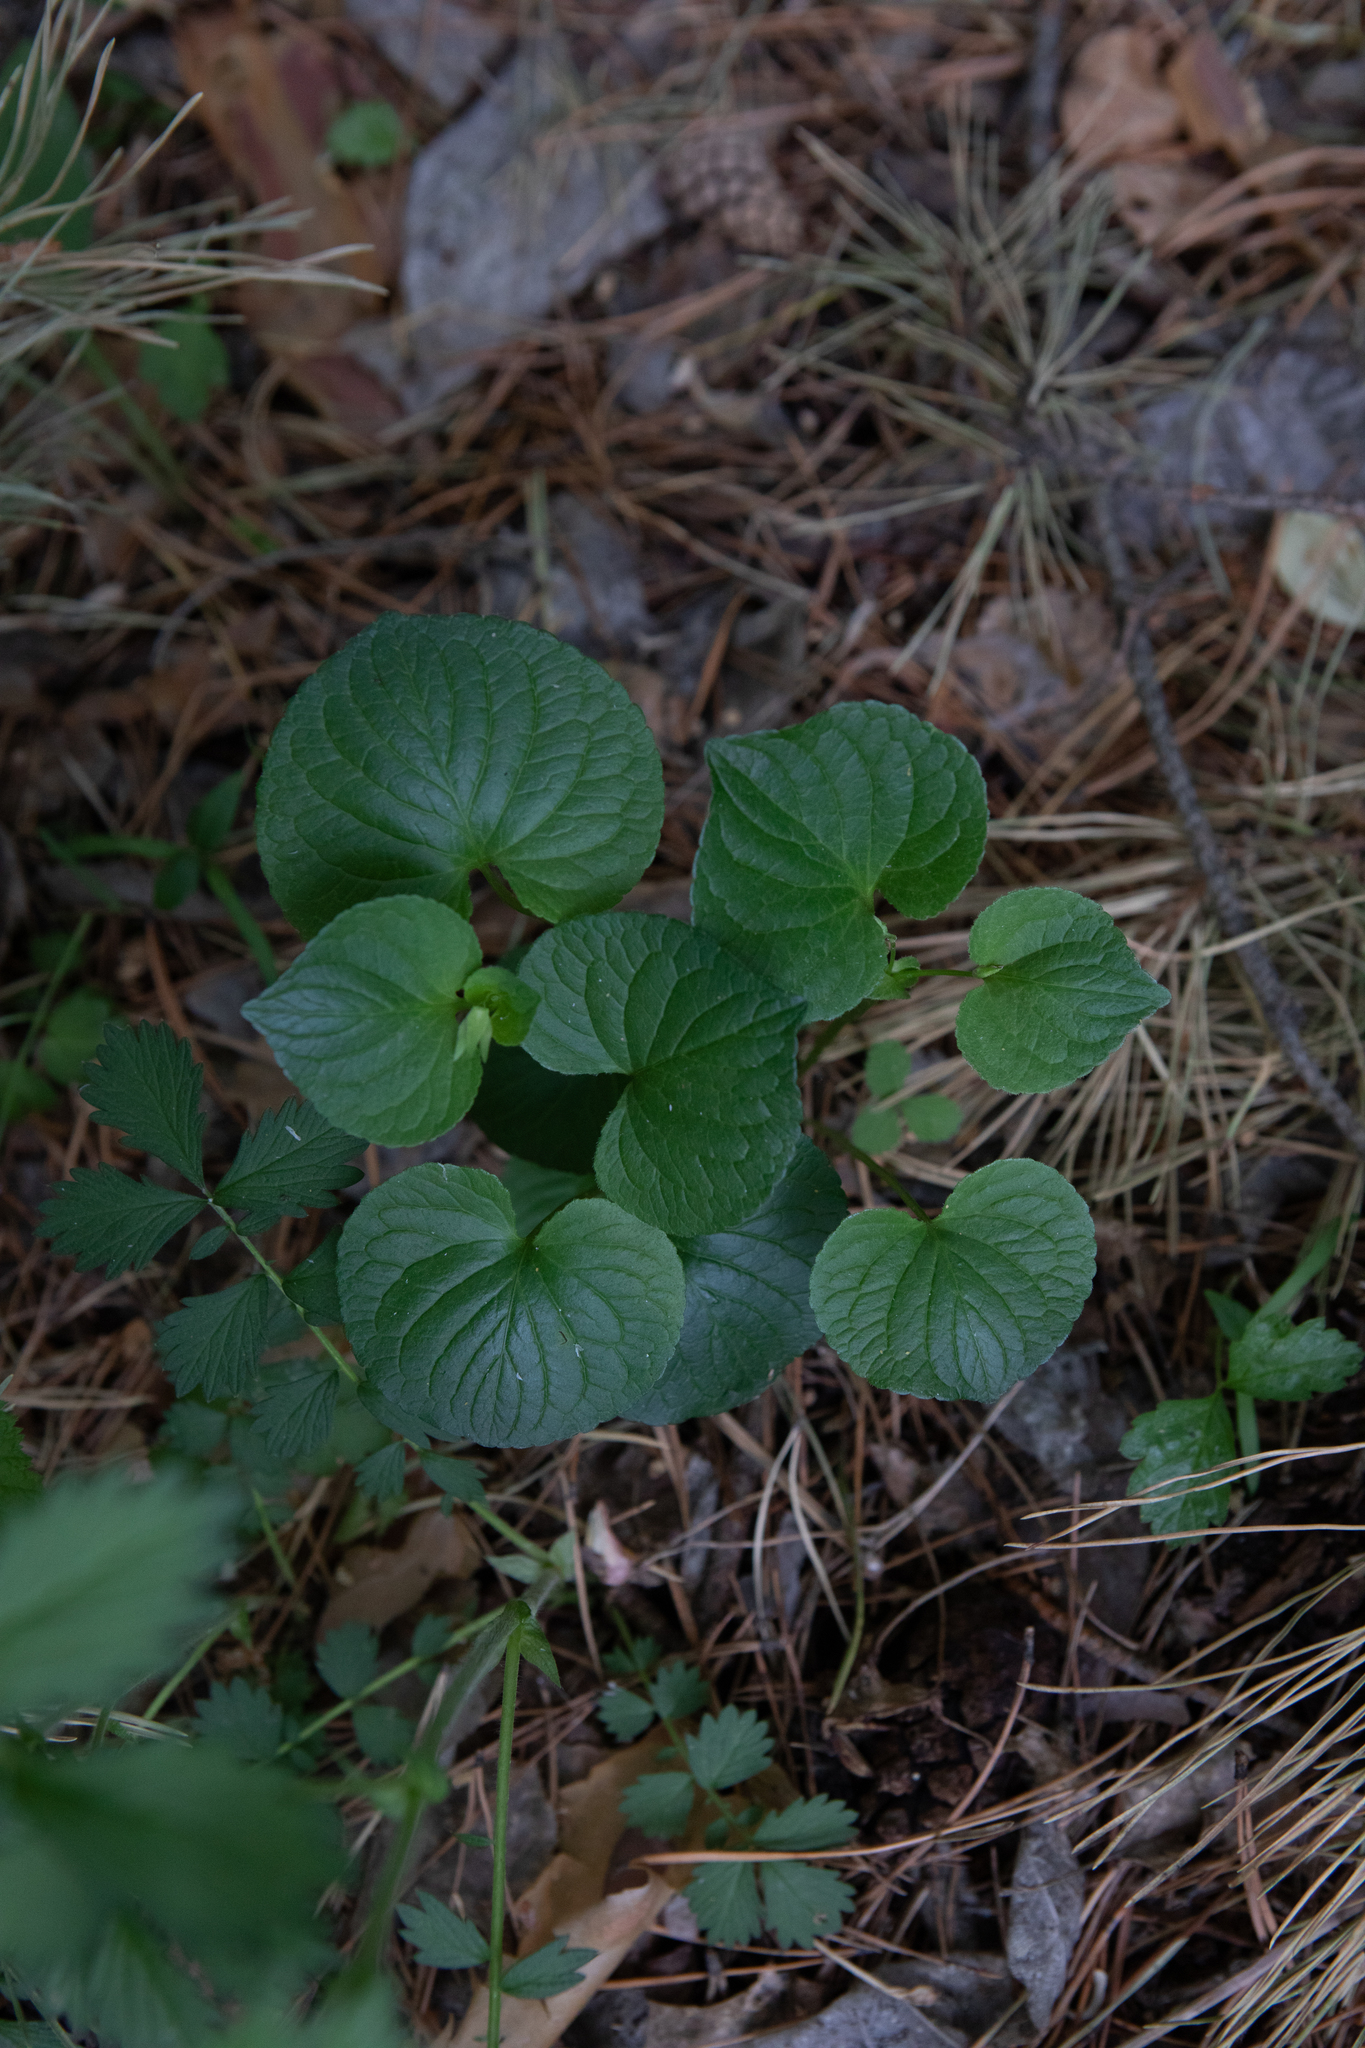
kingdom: Plantae
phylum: Tracheophyta
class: Magnoliopsida
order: Malpighiales
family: Violaceae
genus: Viola
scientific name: Viola mirabilis
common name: Wonder violet
